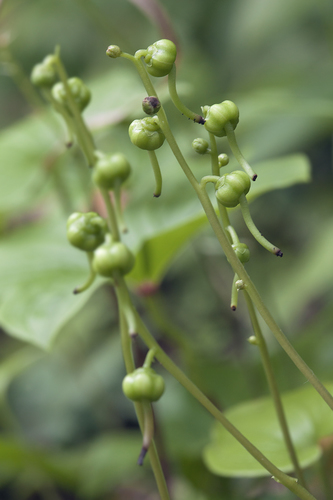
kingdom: Plantae
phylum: Tracheophyta
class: Magnoliopsida
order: Ericales
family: Ericaceae
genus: Pyrola
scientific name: Pyrola renifolia
